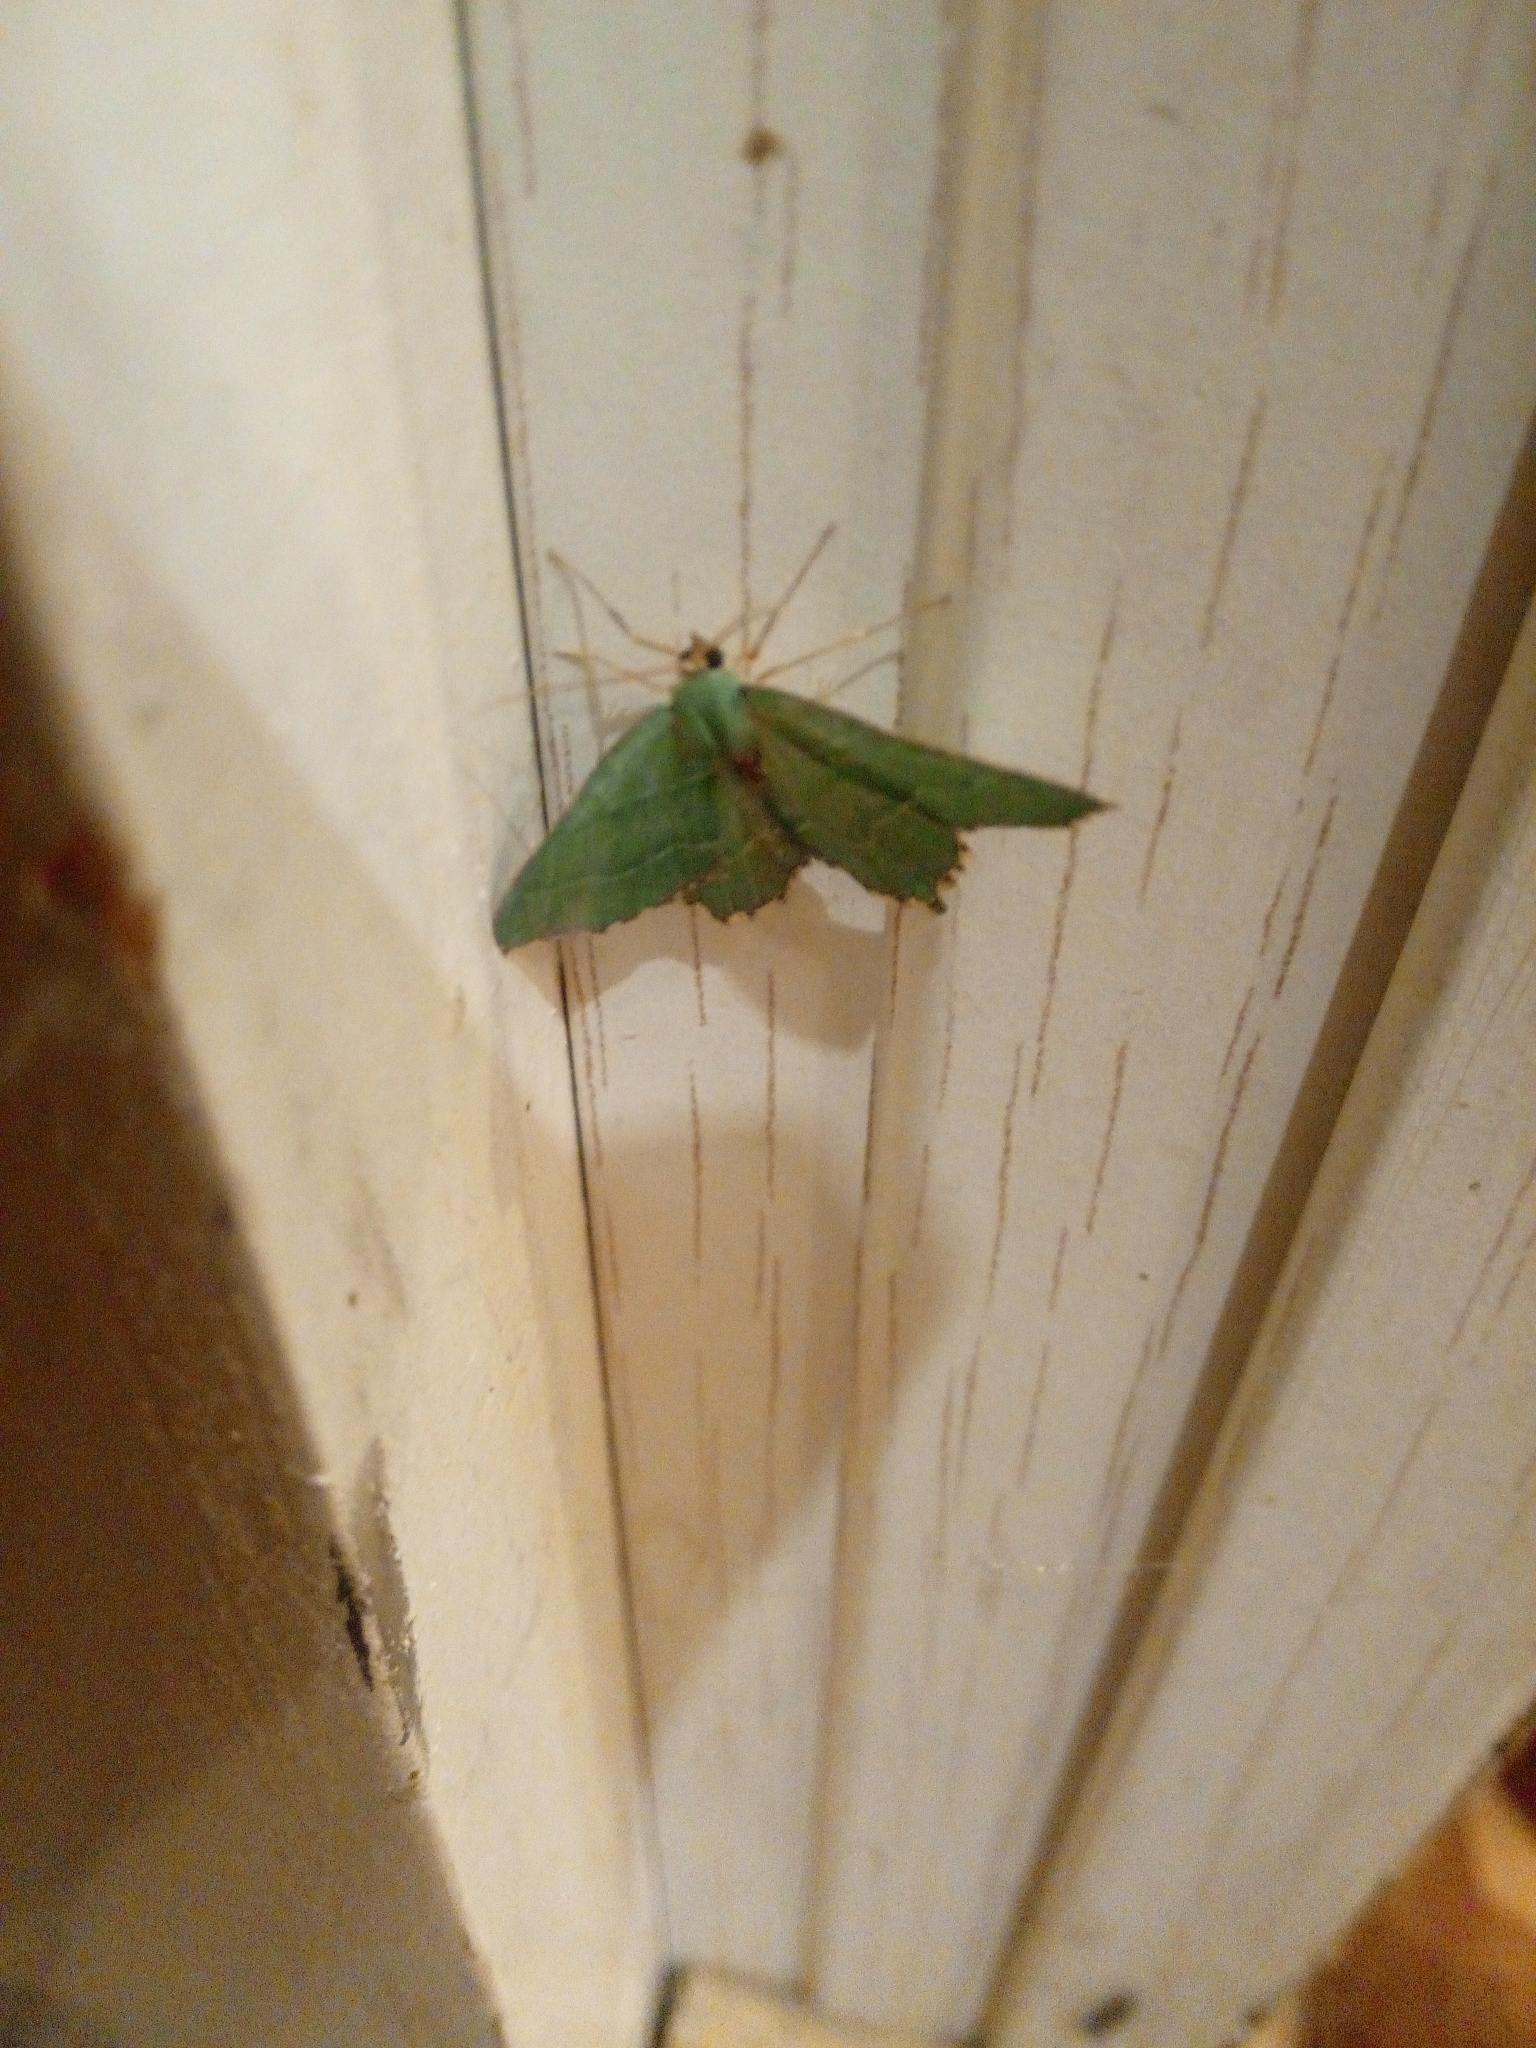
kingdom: Animalia
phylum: Arthropoda
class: Insecta
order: Lepidoptera
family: Geometridae
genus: Hemithea
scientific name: Hemithea aestivaria
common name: Common emerald
